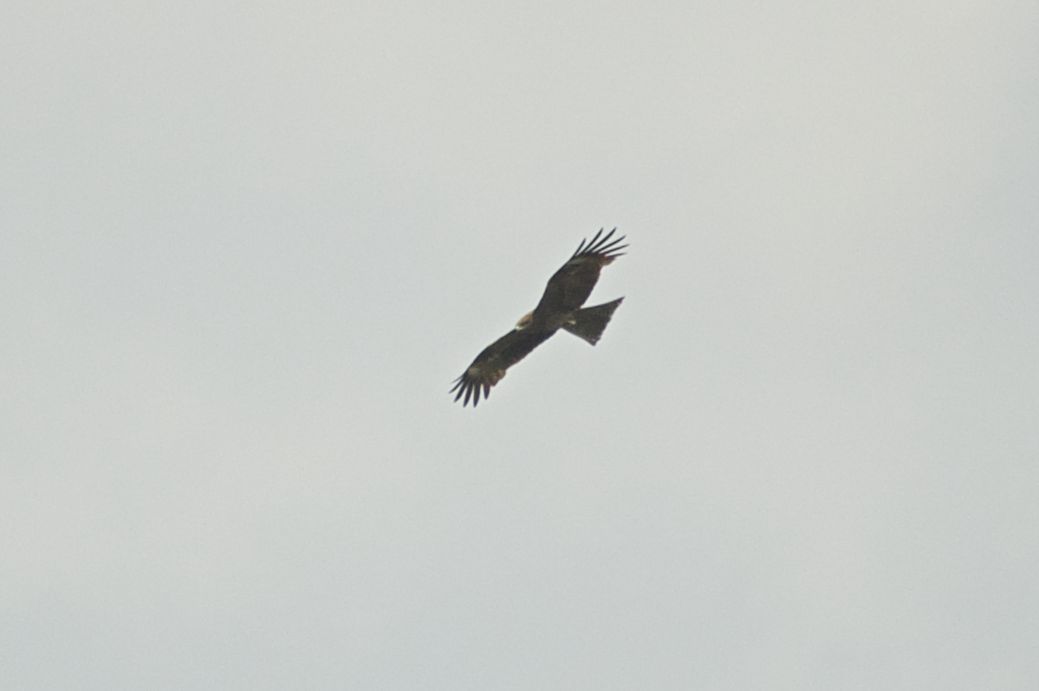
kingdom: Animalia
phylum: Chordata
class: Aves
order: Accipitriformes
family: Accipitridae
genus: Milvus
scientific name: Milvus migrans
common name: Black kite
